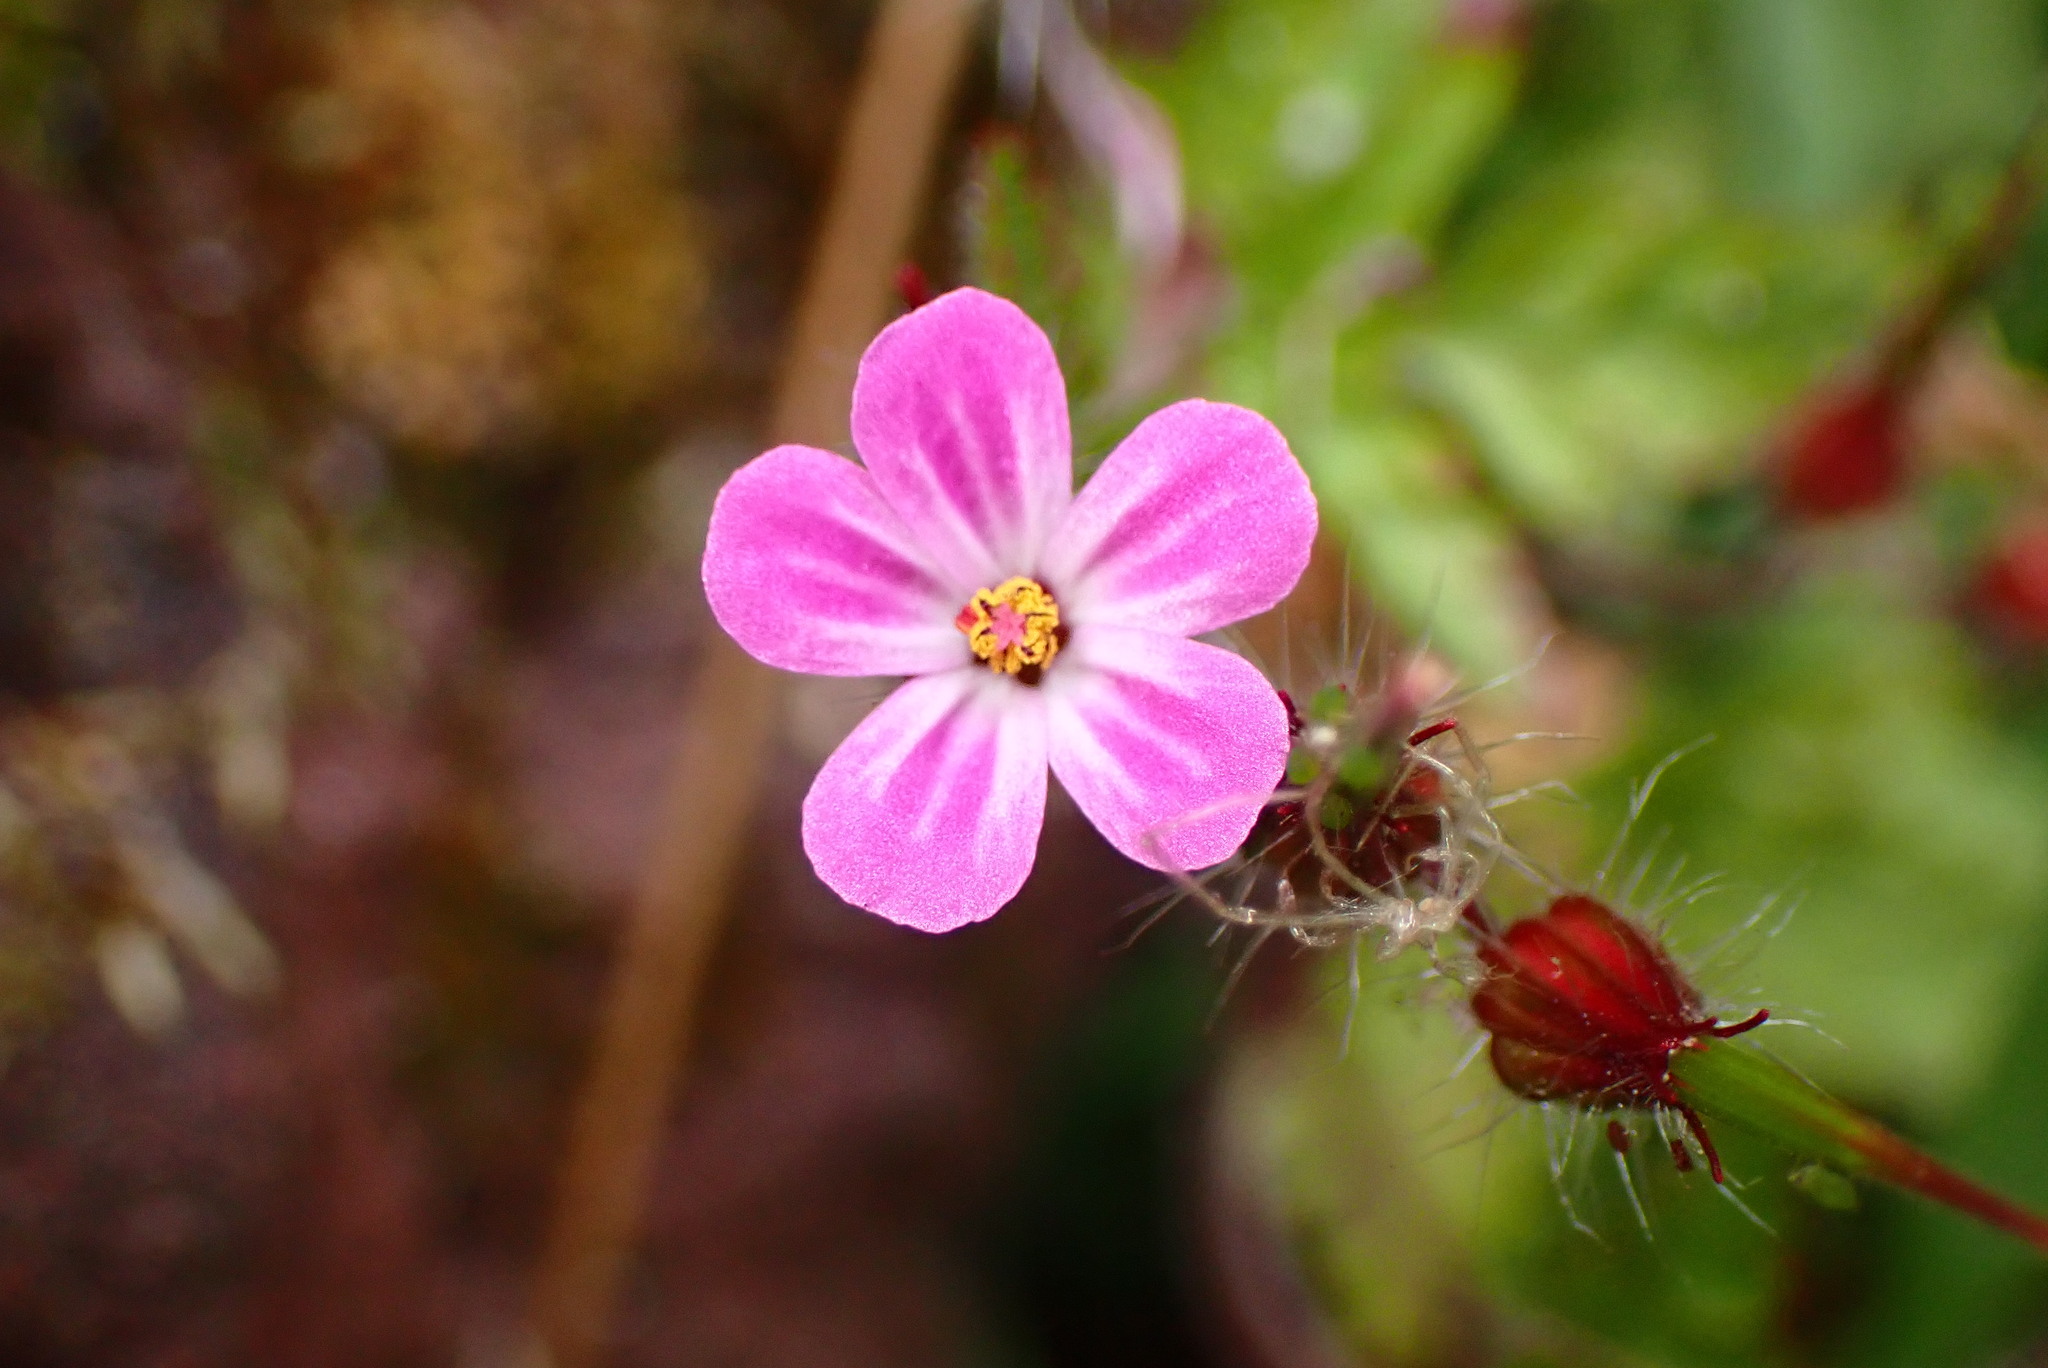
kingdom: Plantae
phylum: Tracheophyta
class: Magnoliopsida
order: Geraniales
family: Geraniaceae
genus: Geranium
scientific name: Geranium robertianum
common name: Herb-robert
